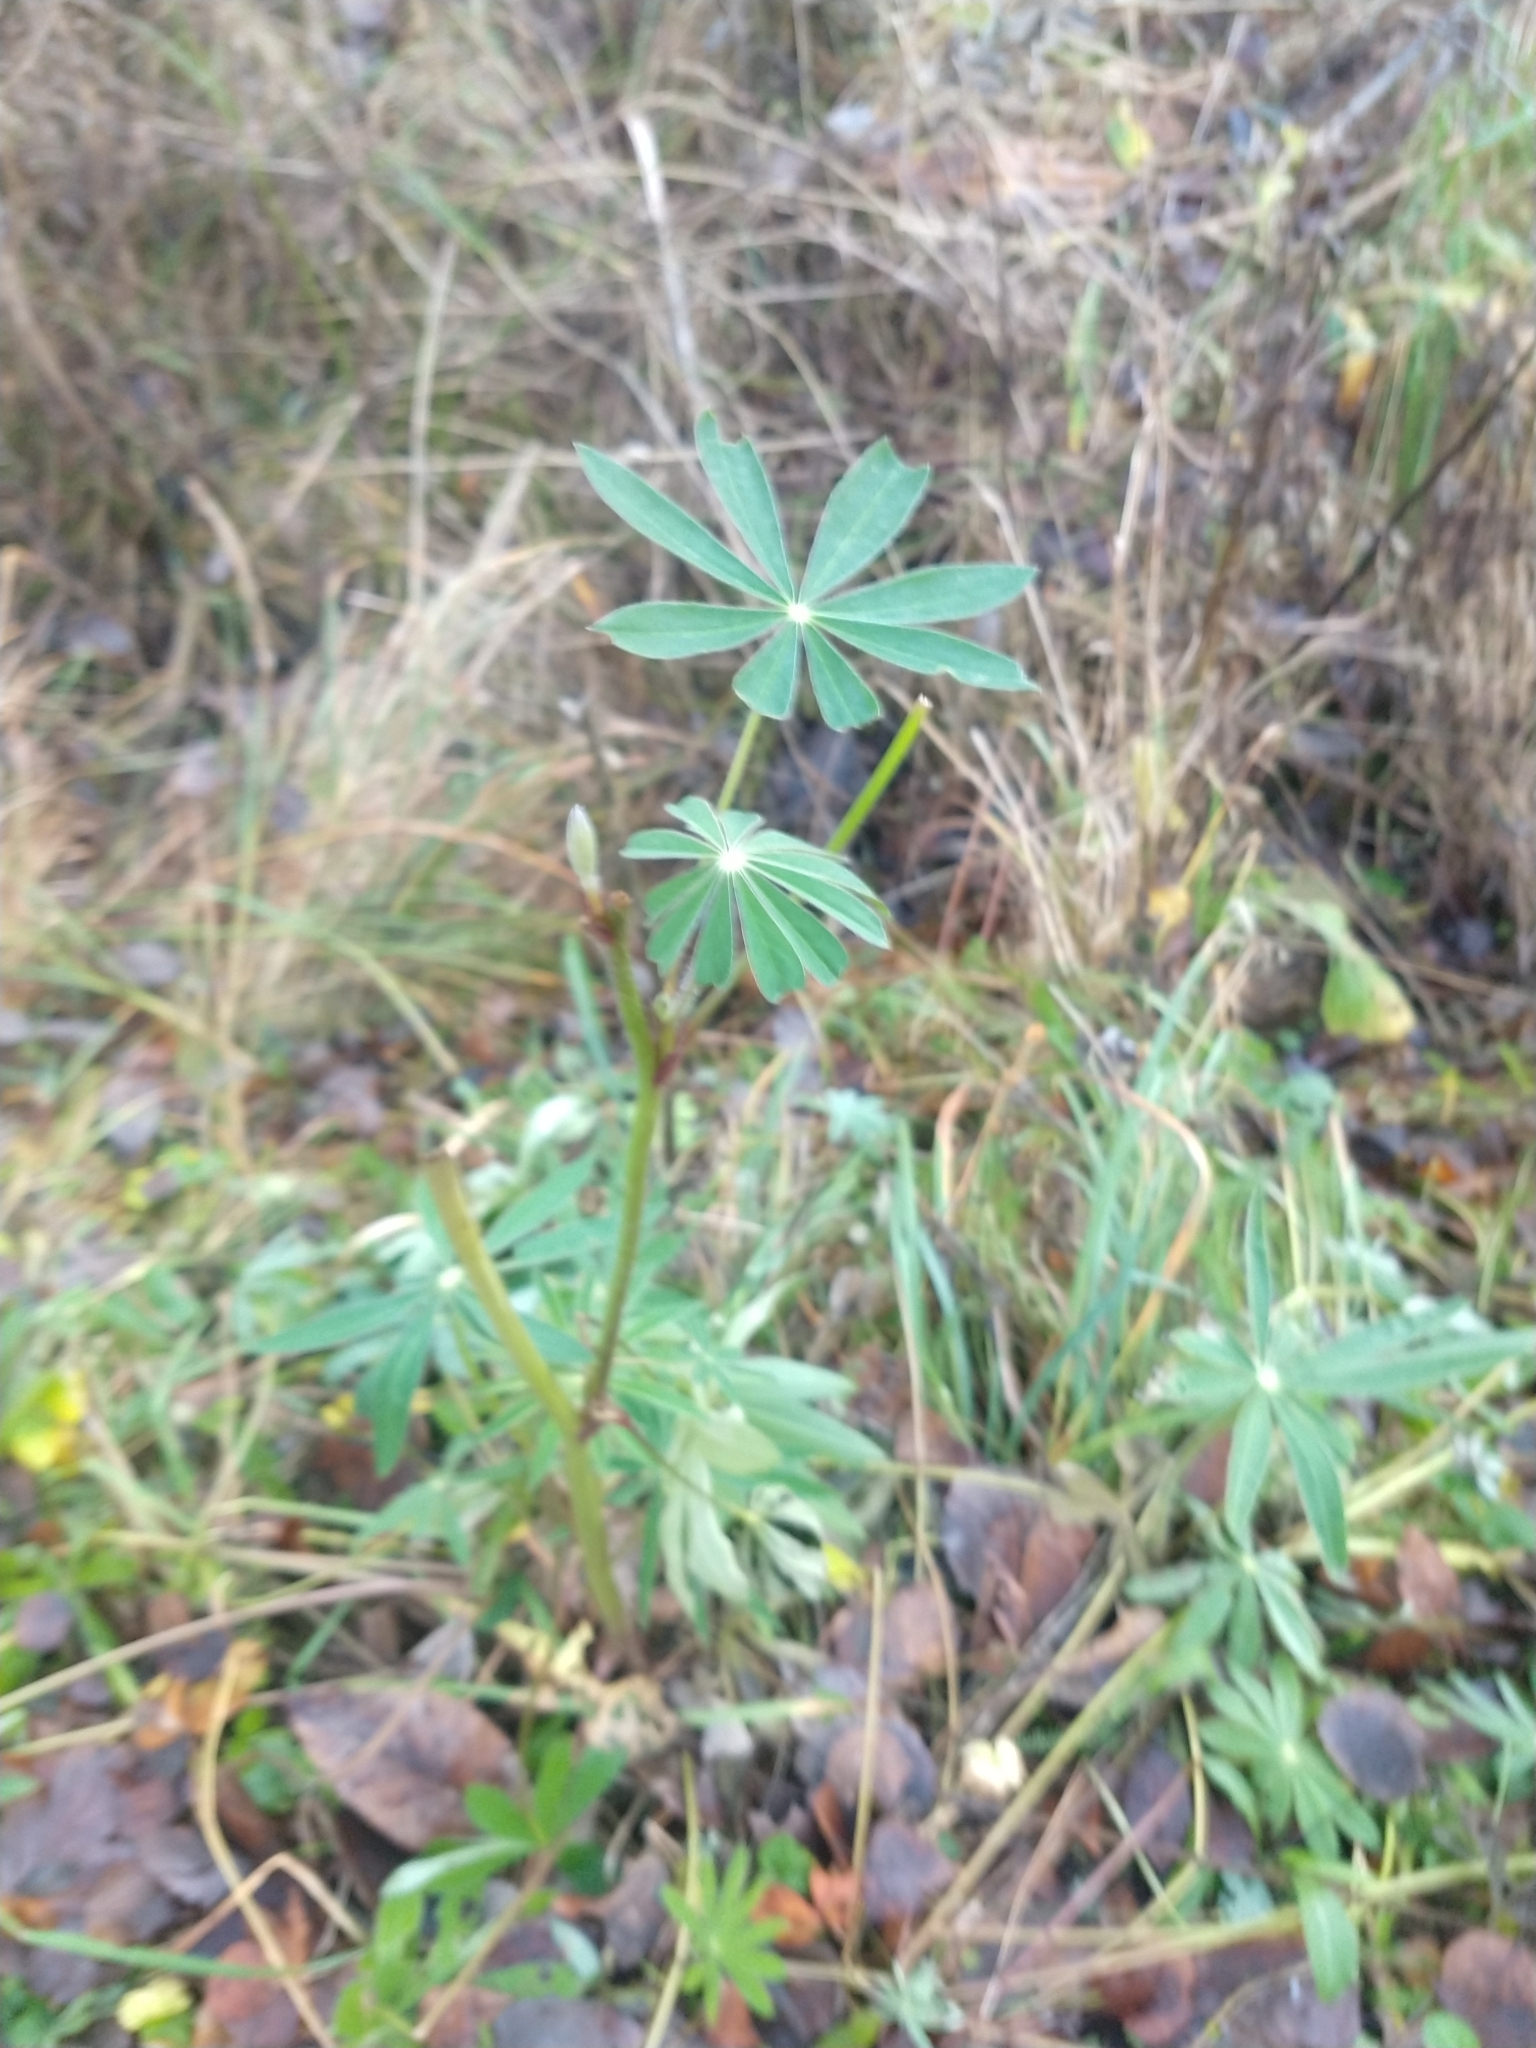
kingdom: Plantae
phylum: Tracheophyta
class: Magnoliopsida
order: Fabales
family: Fabaceae
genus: Lupinus
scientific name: Lupinus polyphyllus
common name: Garden lupin
